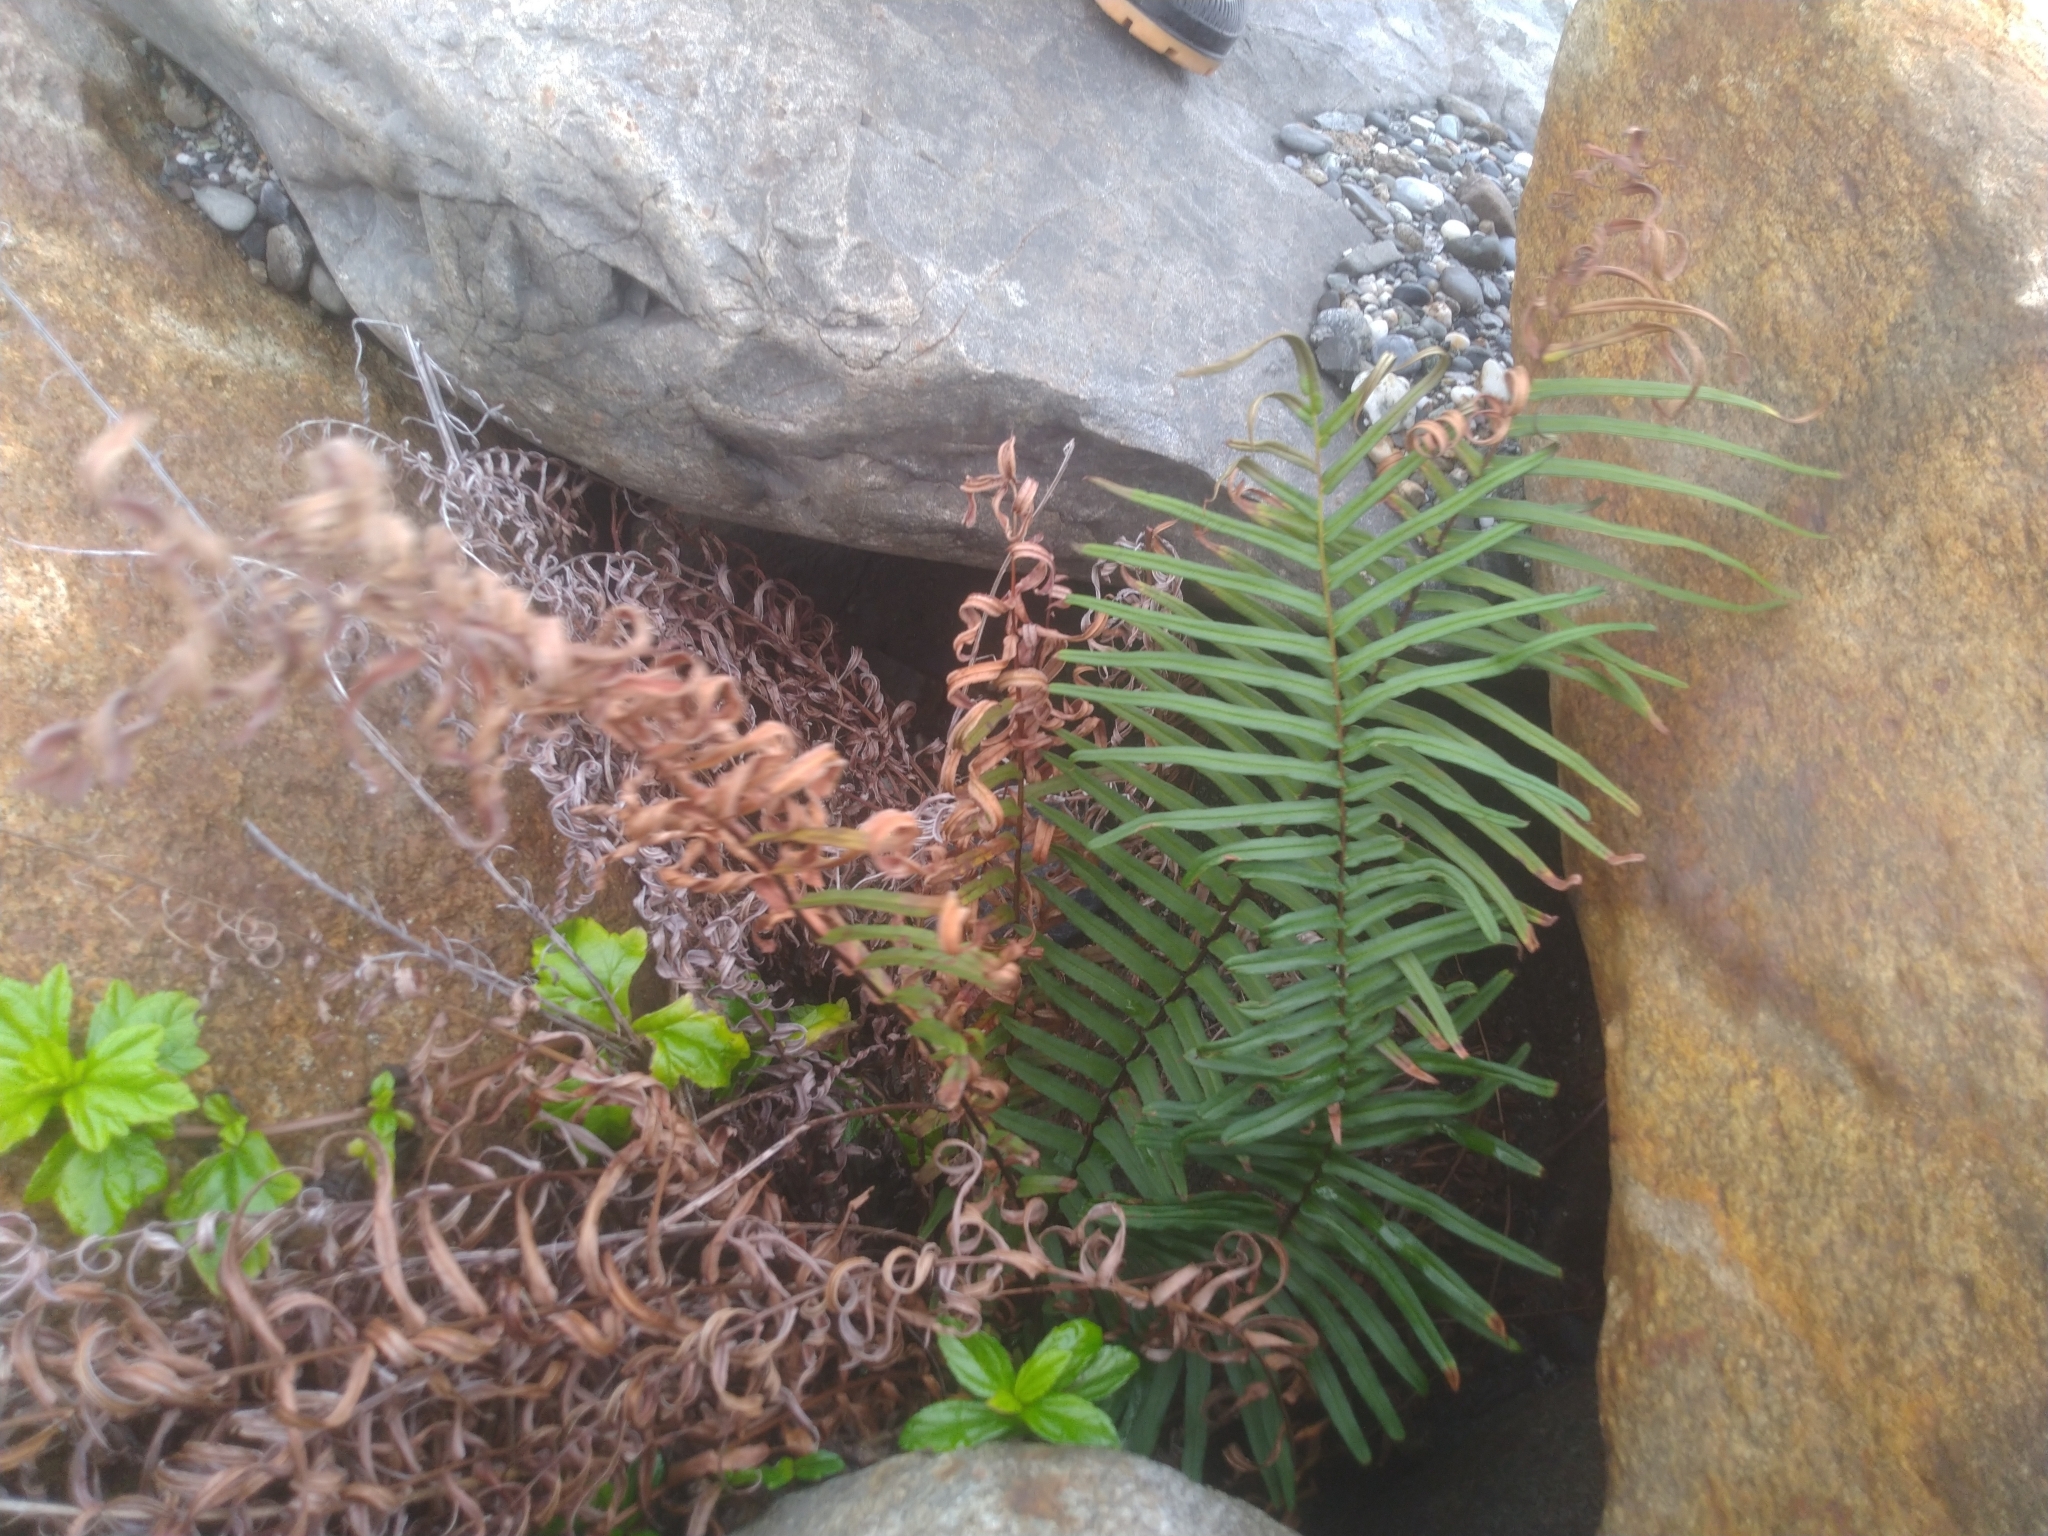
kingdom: Plantae
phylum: Tracheophyta
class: Polypodiopsida
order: Polypodiales
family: Pteridaceae
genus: Pteris
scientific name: Pteris vittata
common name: Ladder brake
